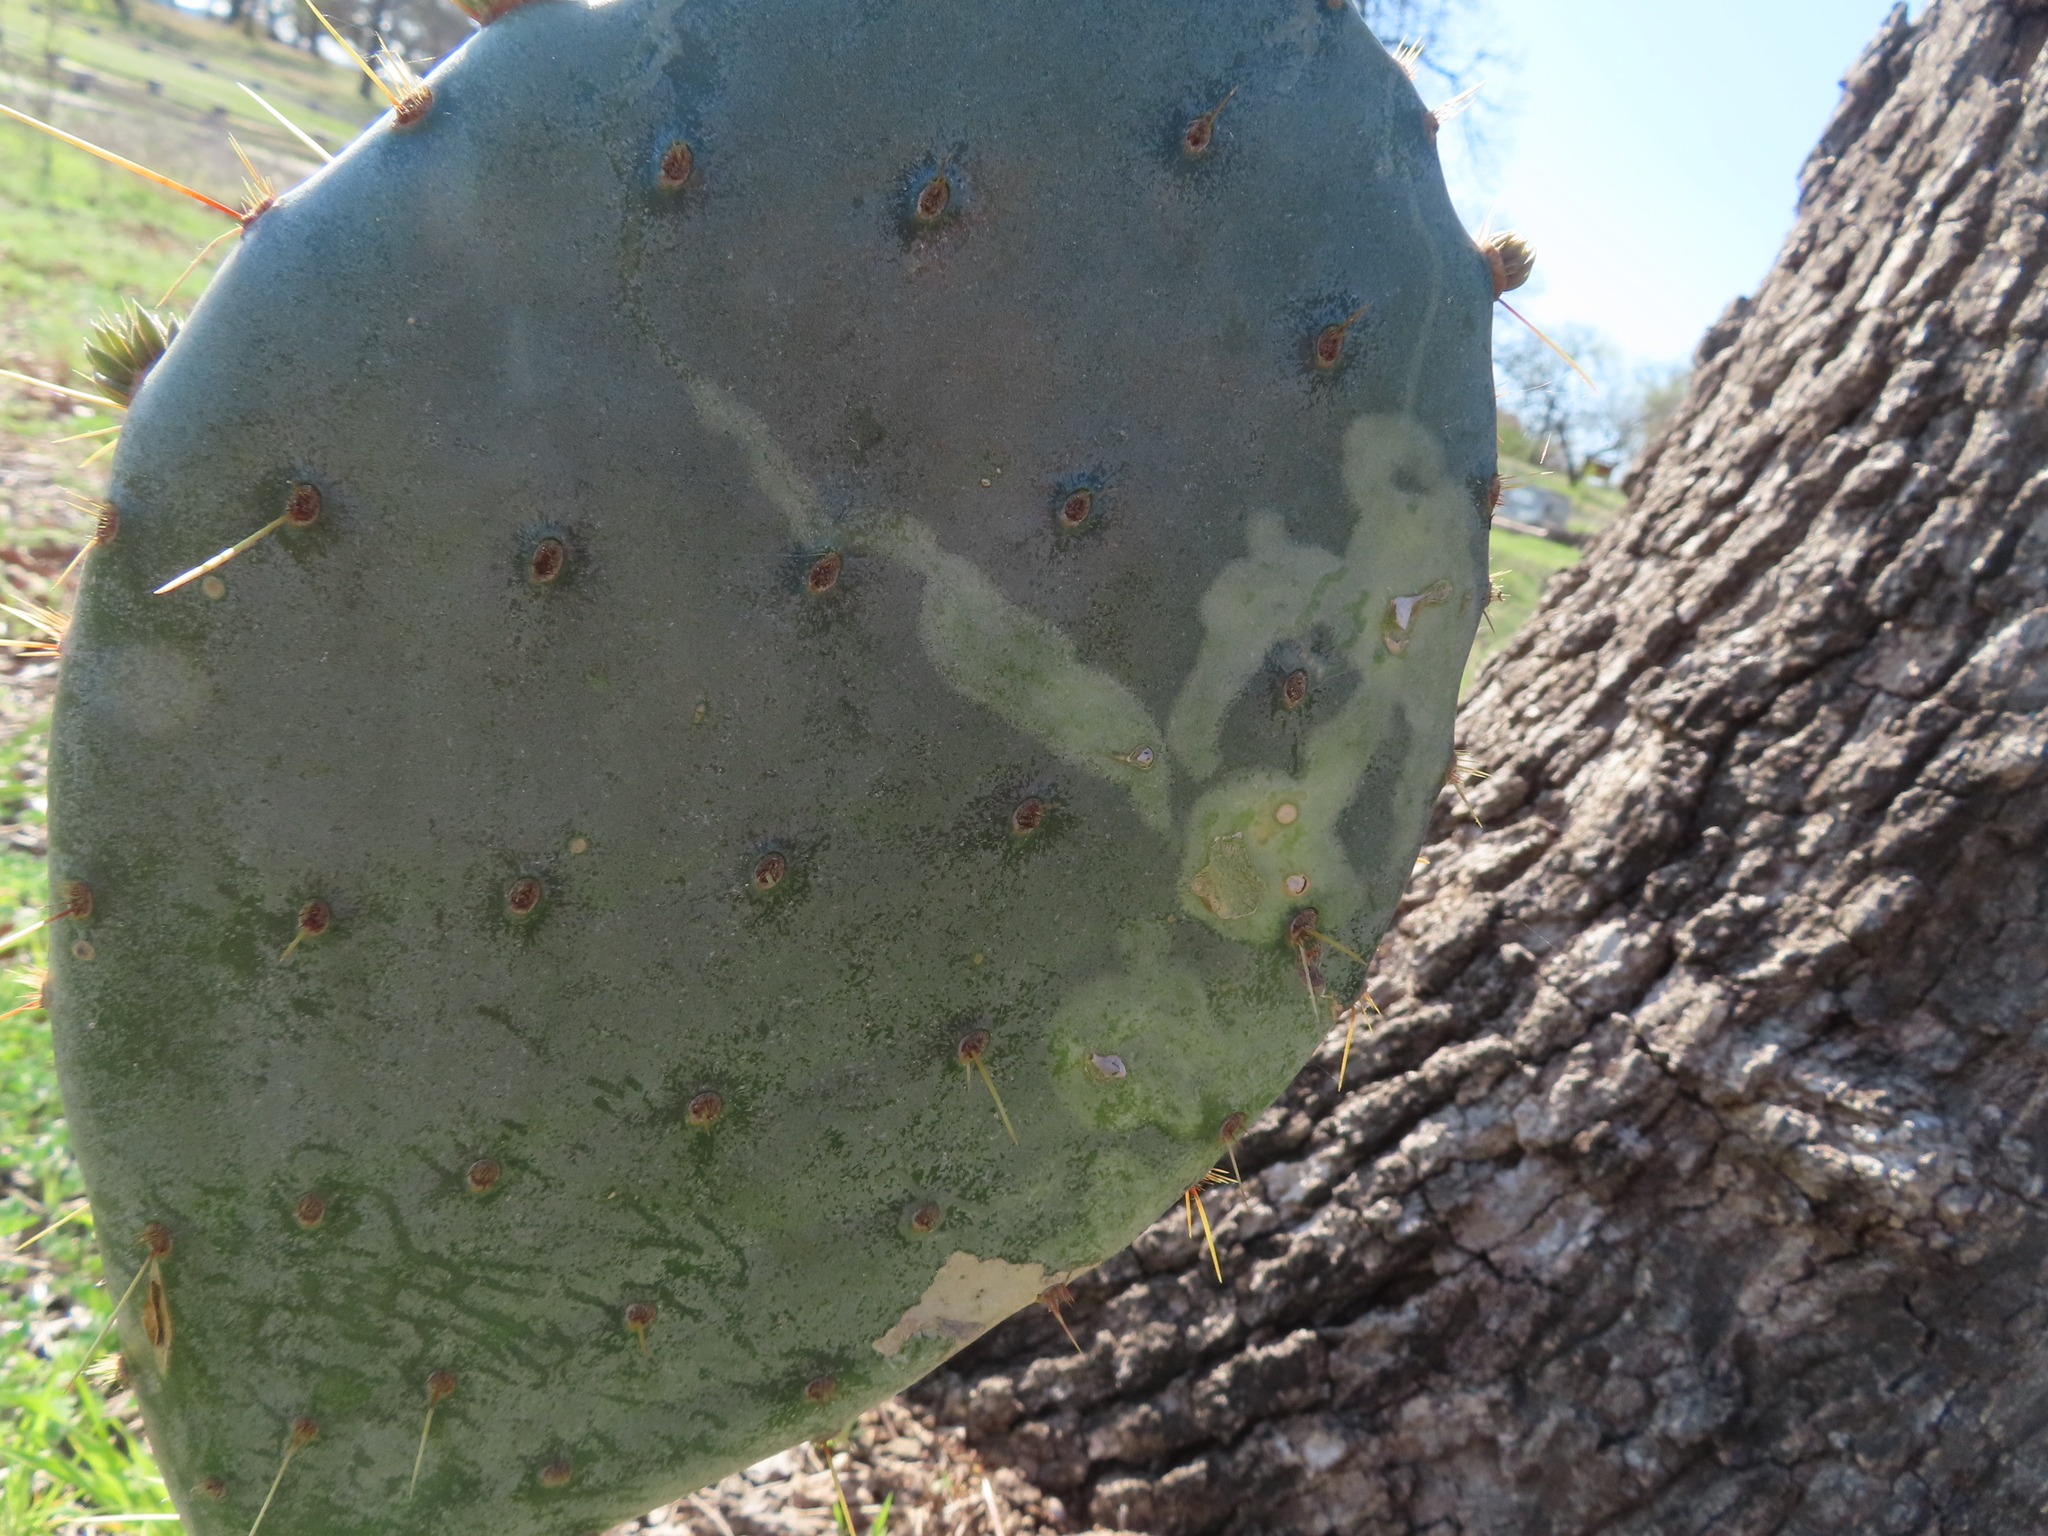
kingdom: Animalia
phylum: Arthropoda
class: Insecta
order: Lepidoptera
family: Gracillariidae
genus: Marmara
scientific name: Marmara opuntiella
